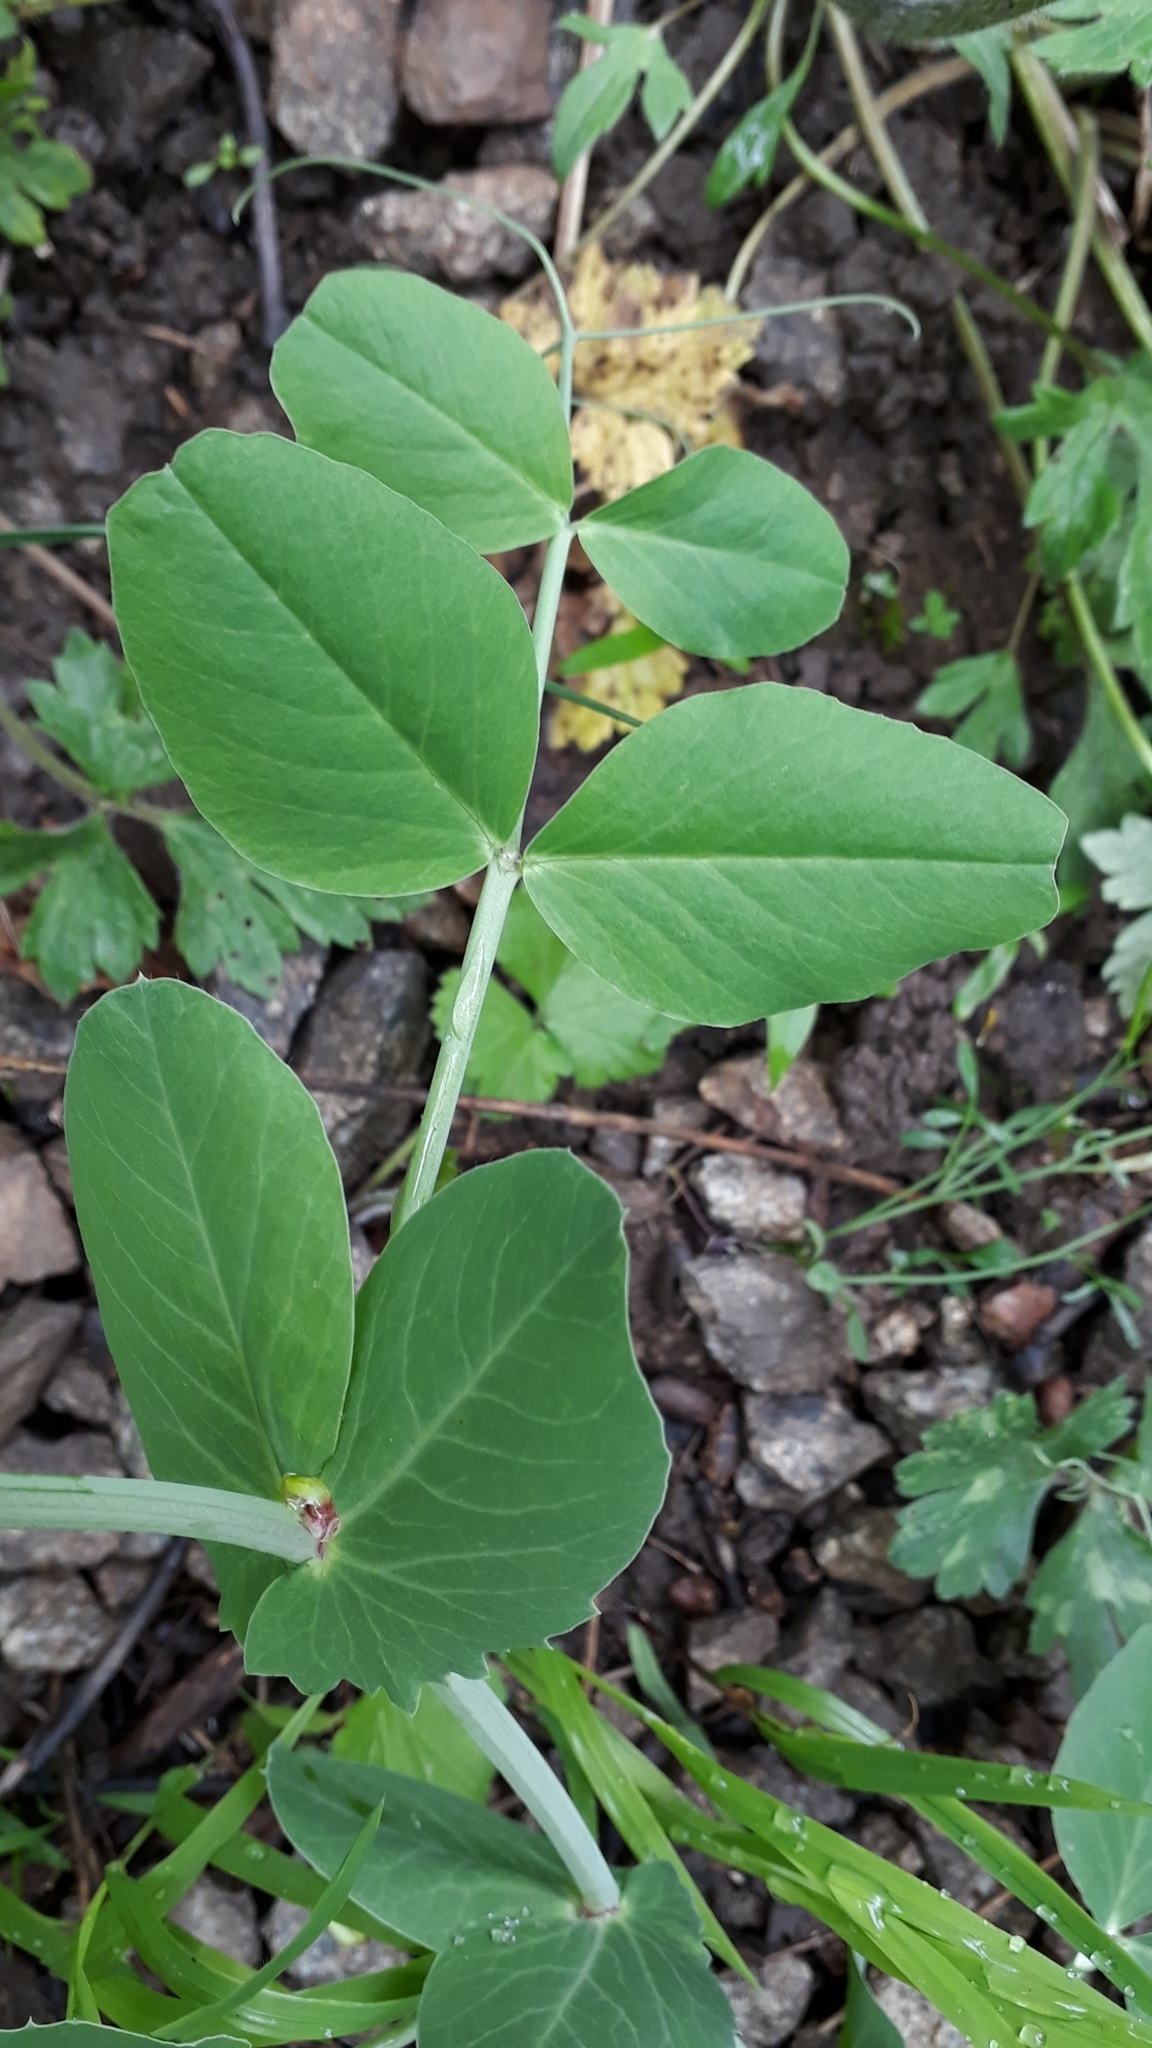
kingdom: Plantae
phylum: Tracheophyta
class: Magnoliopsida
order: Fabales
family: Fabaceae
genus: Lathyrus
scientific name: Lathyrus oleraceus
